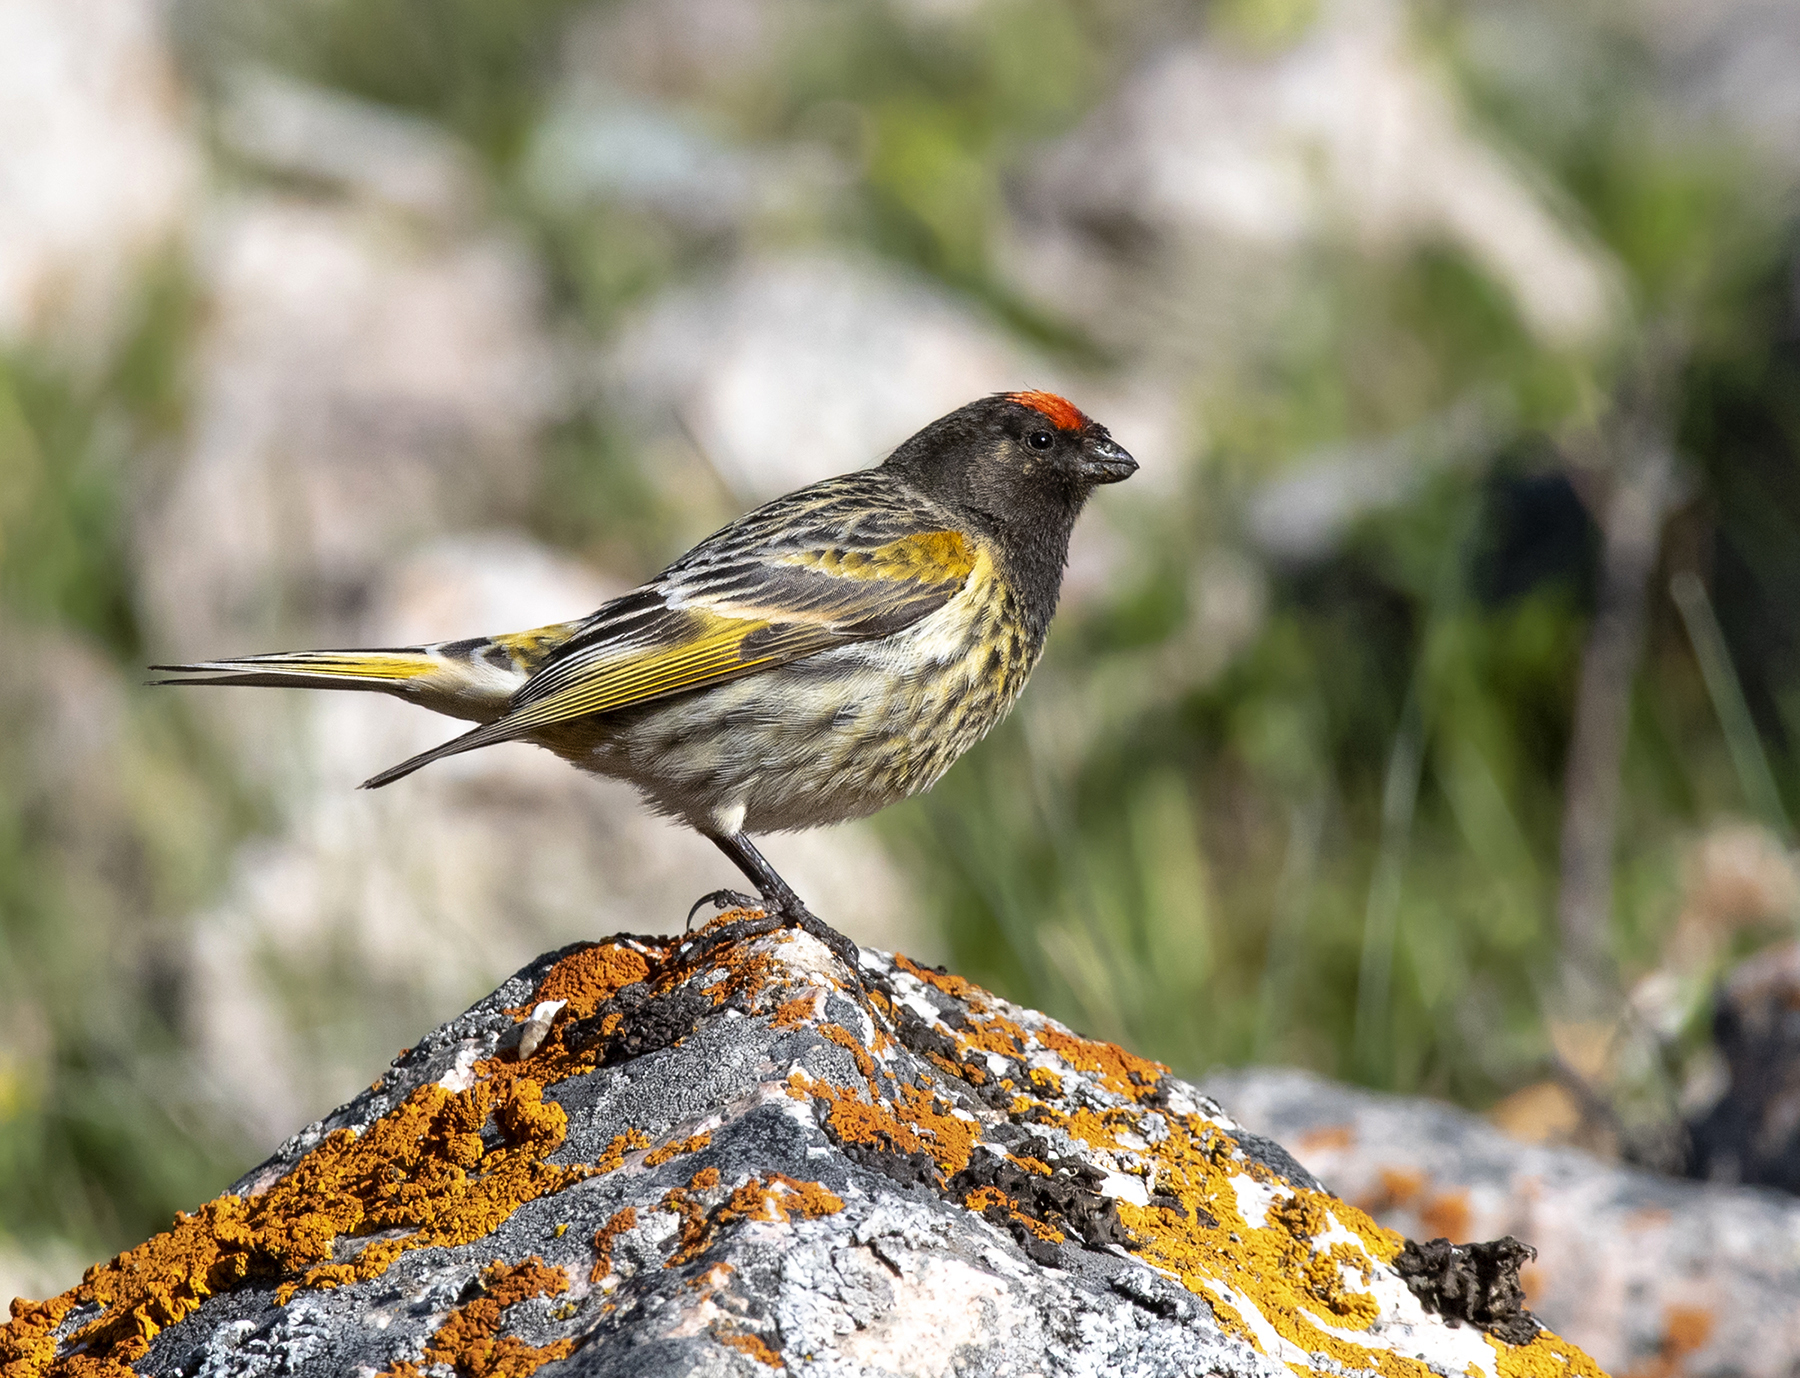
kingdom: Animalia
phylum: Chordata
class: Aves
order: Passeriformes
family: Fringillidae
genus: Serinus
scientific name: Serinus pusillus
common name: Red-fronted serin
